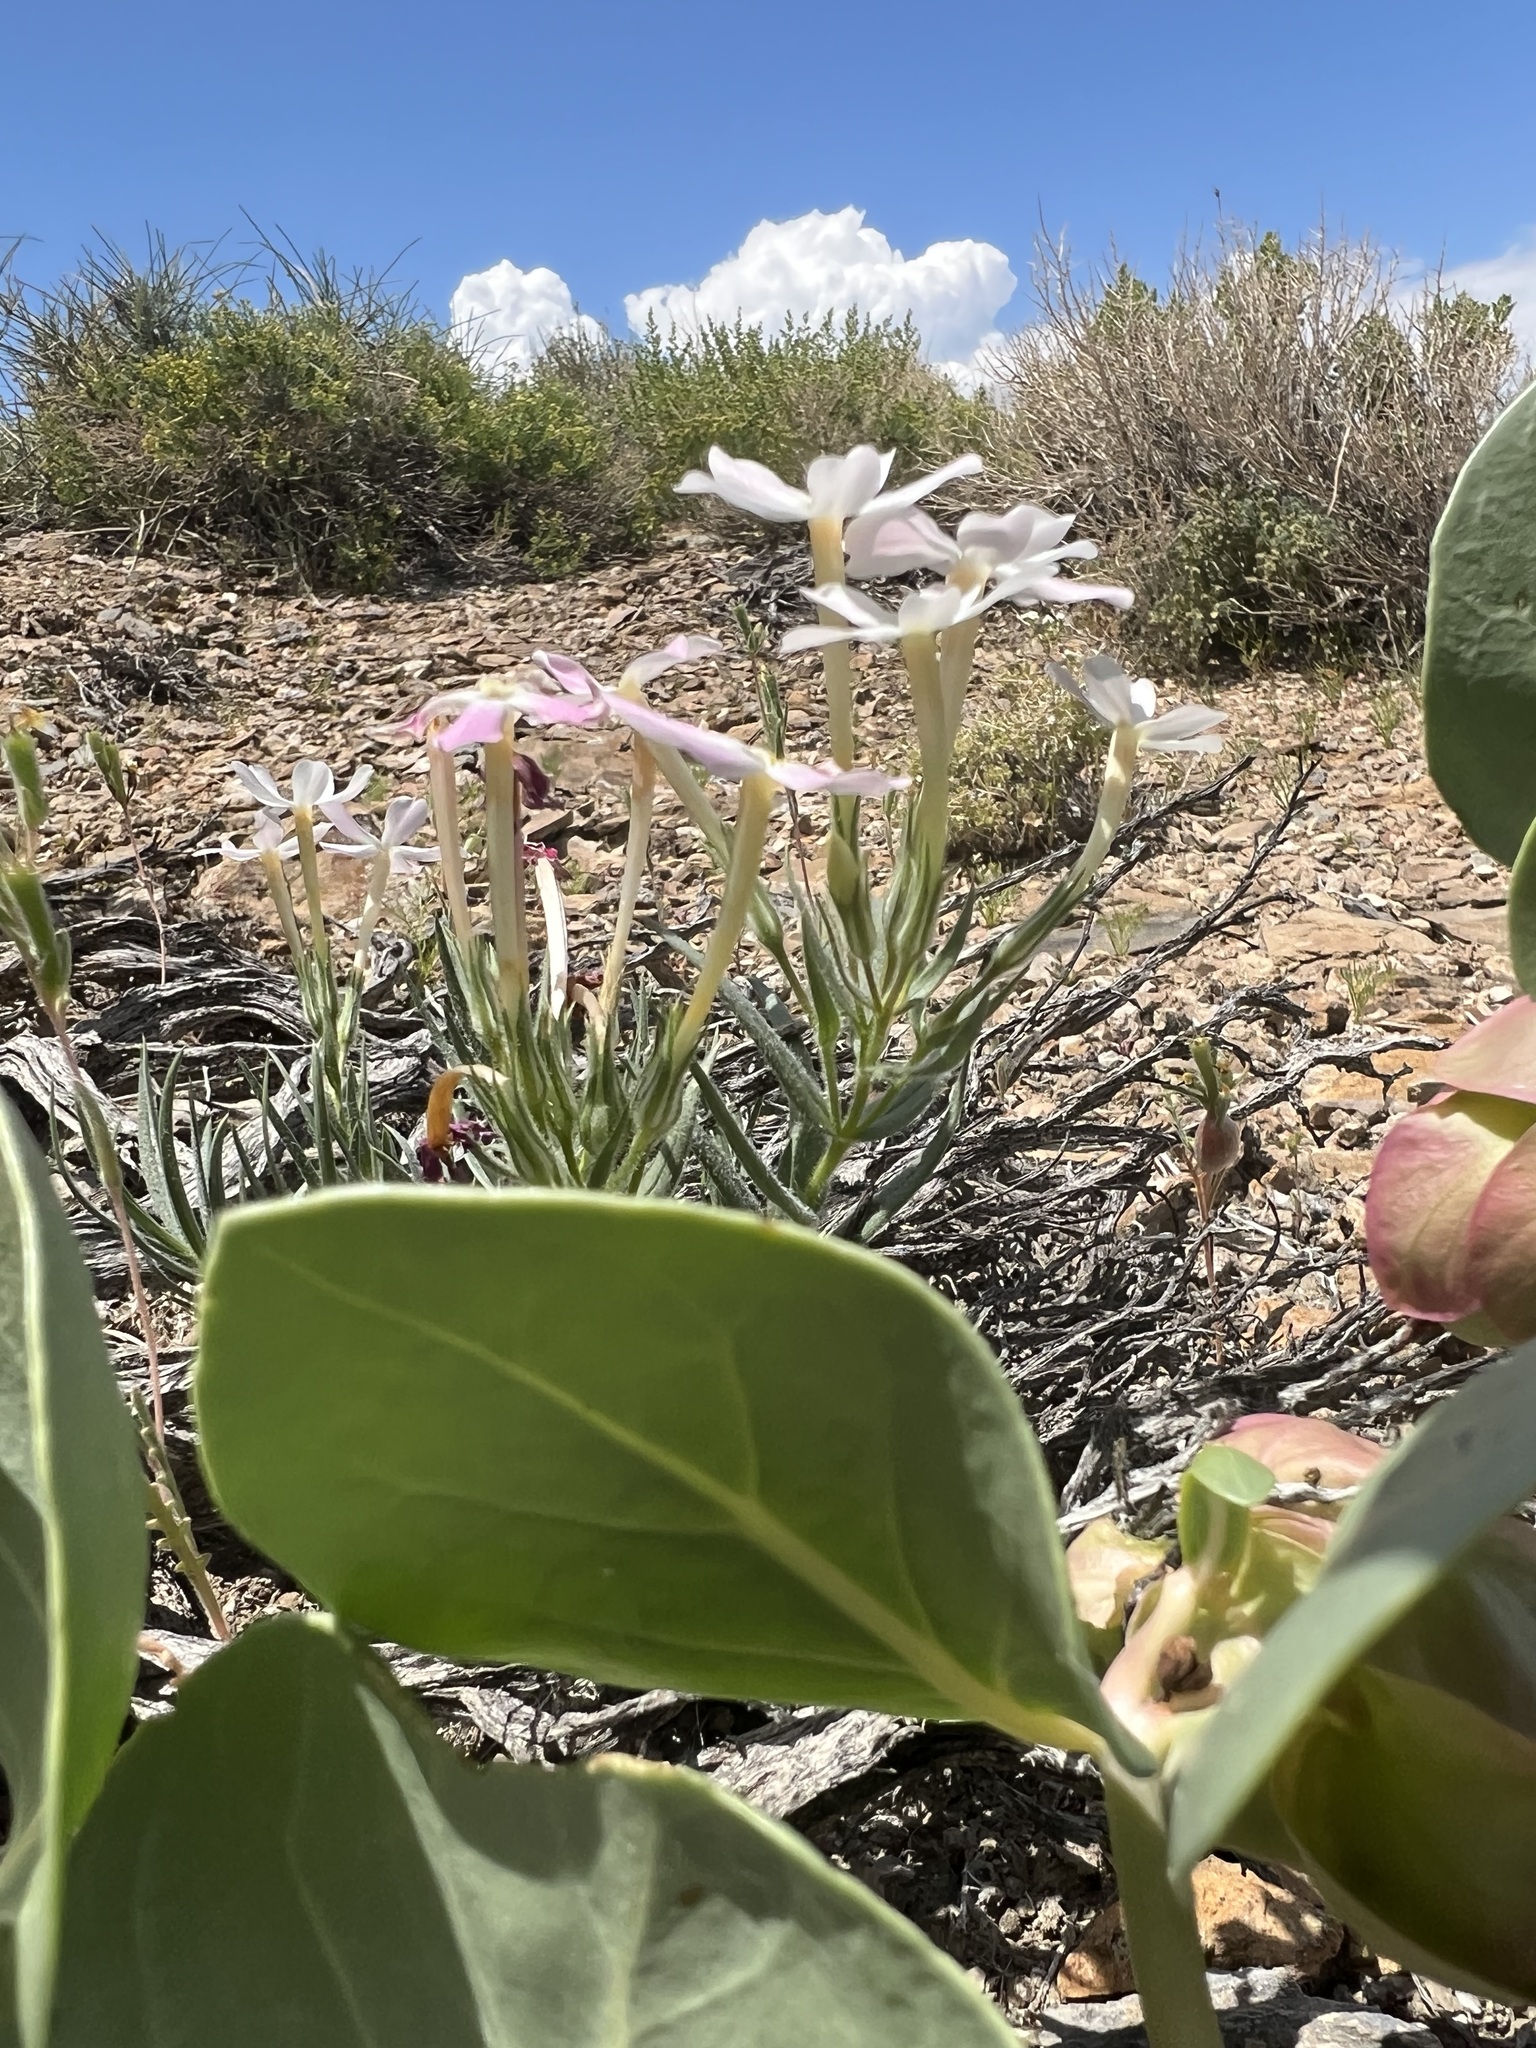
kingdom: Plantae
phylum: Tracheophyta
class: Magnoliopsida
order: Ericales
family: Polemoniaceae
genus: Phlox
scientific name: Phlox longifolia
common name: Longleaf phlox
